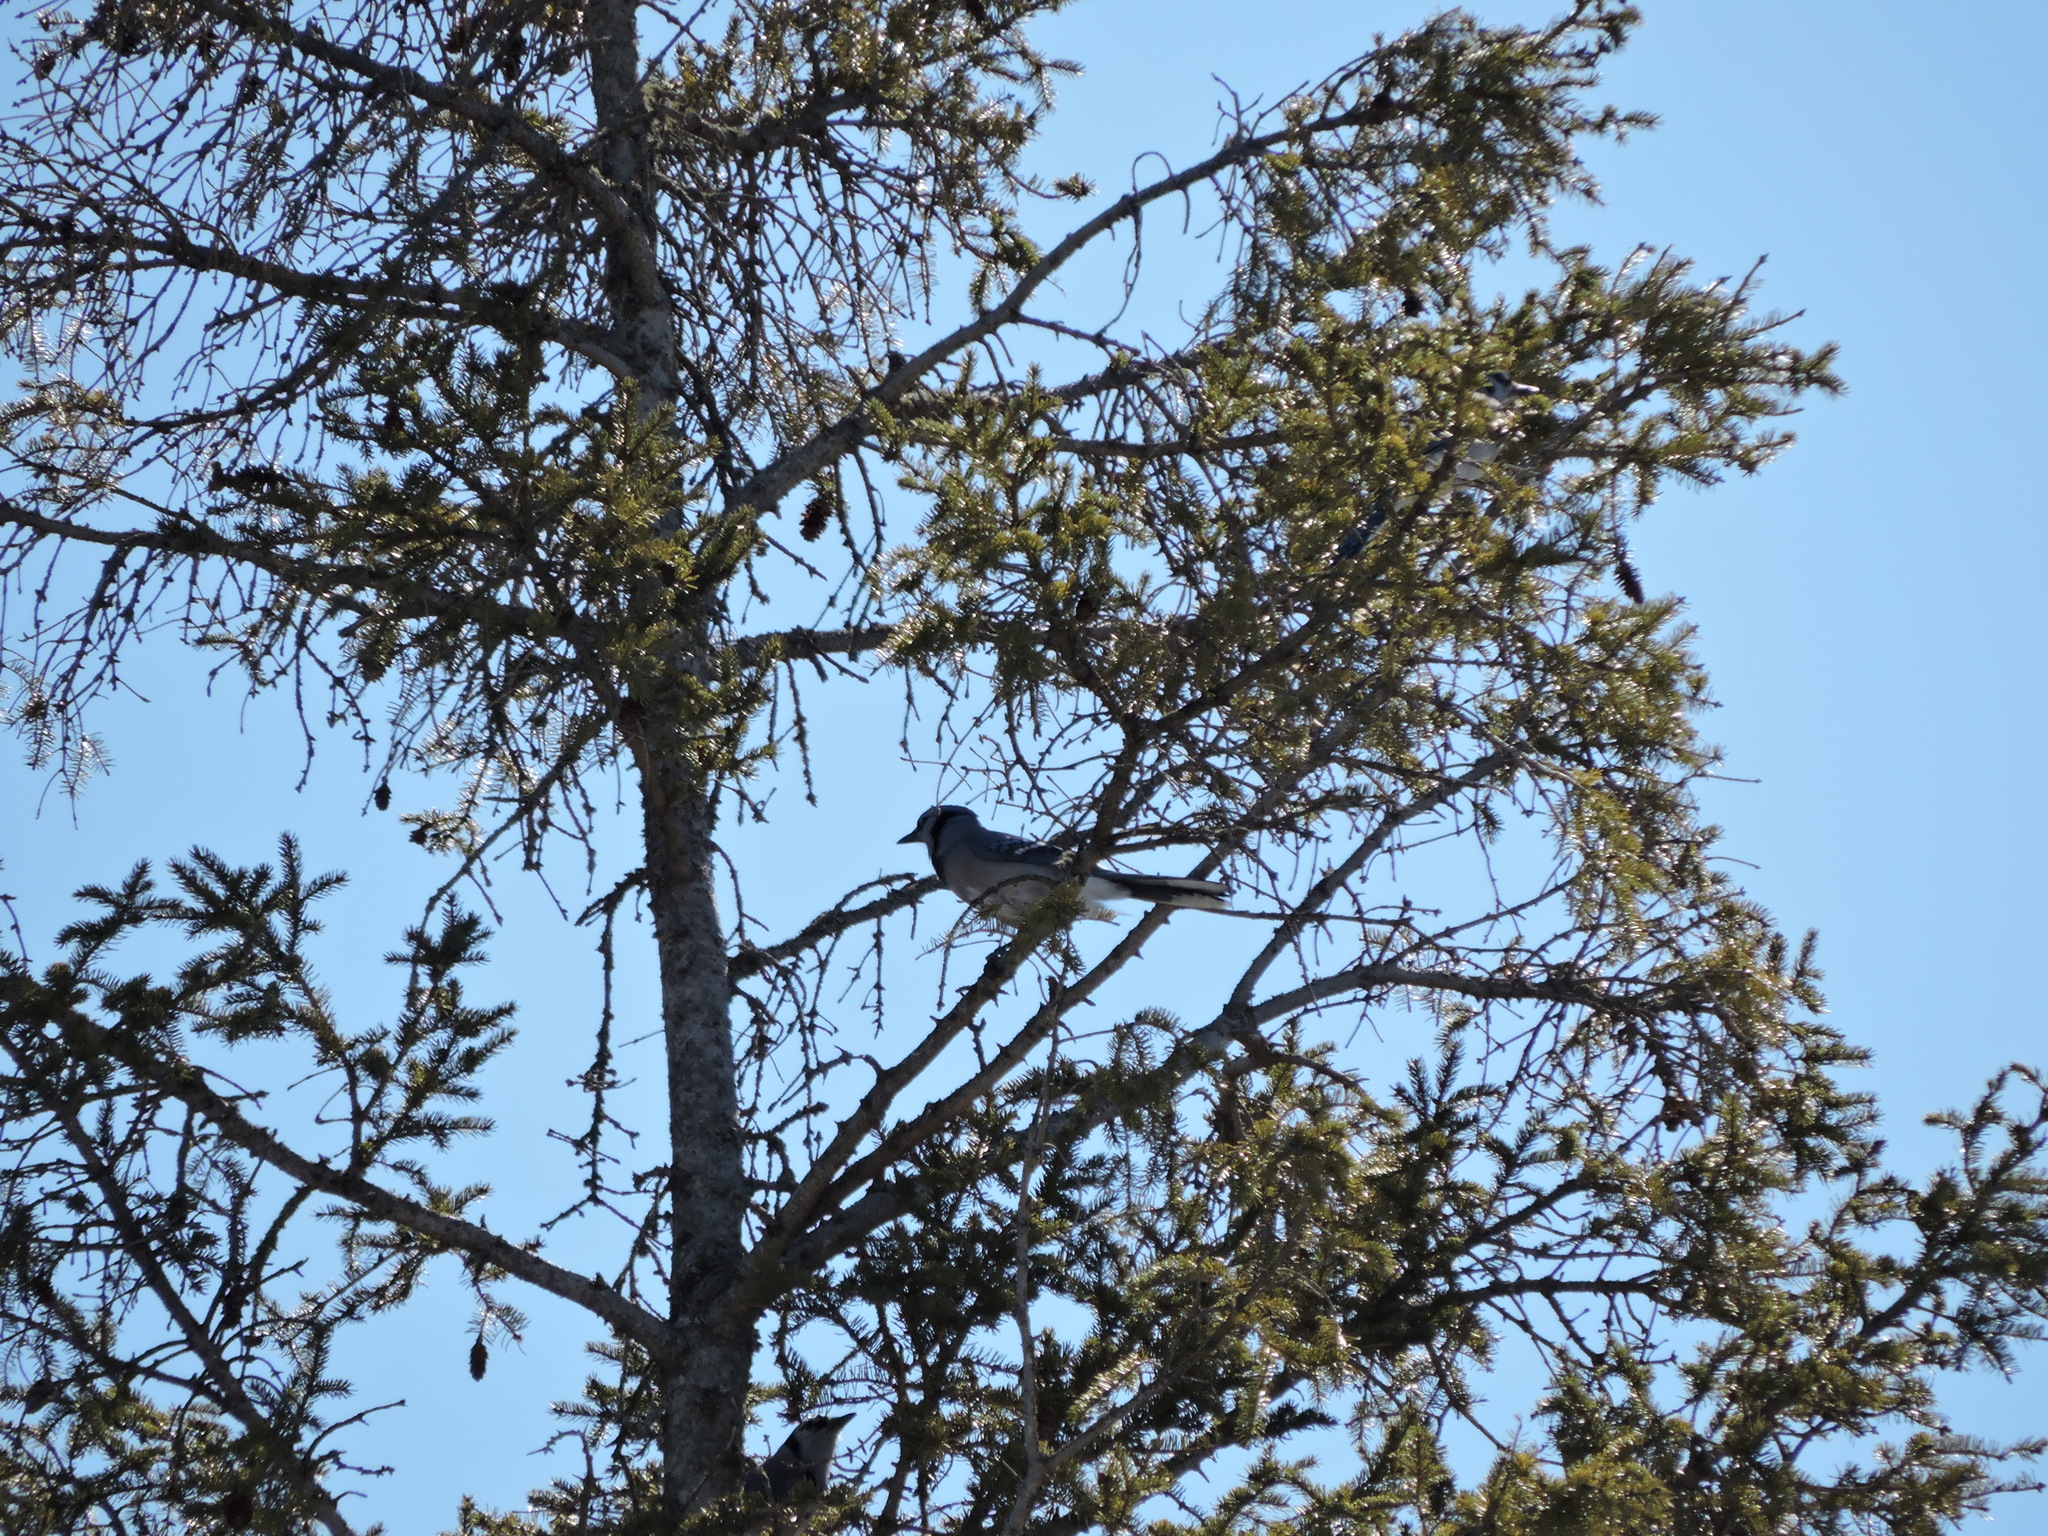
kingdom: Animalia
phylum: Chordata
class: Aves
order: Passeriformes
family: Corvidae
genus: Cyanocitta
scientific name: Cyanocitta cristata
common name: Blue jay
